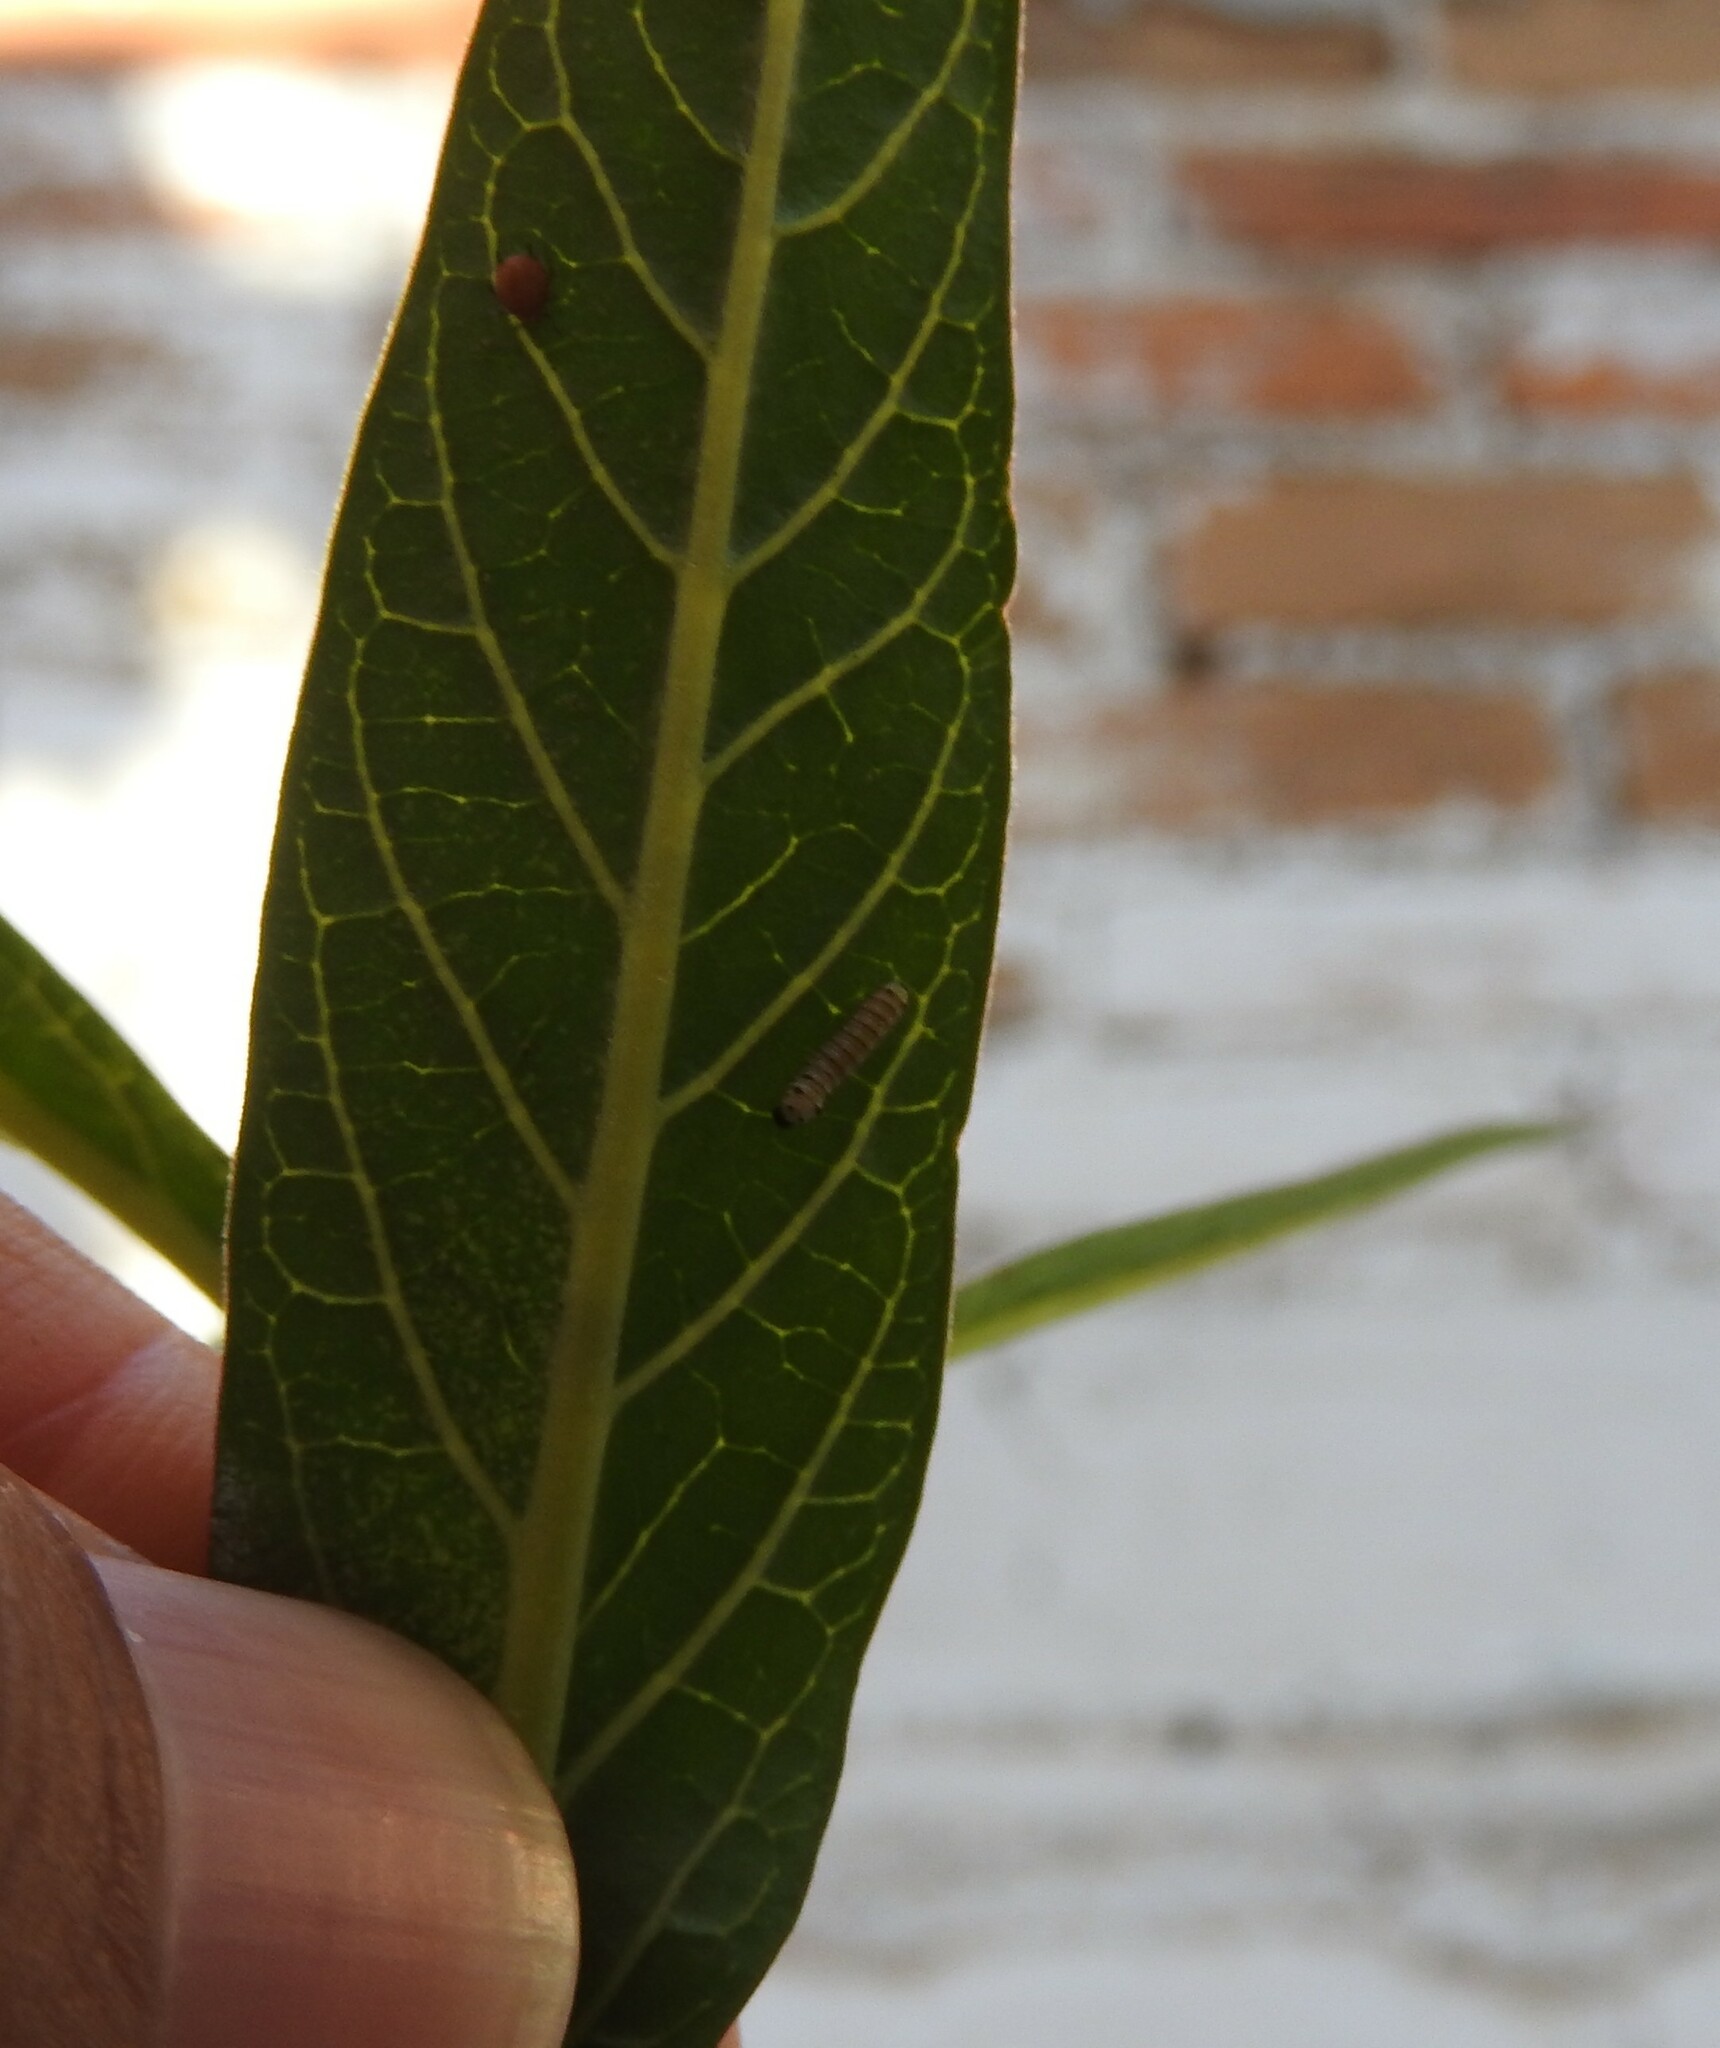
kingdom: Animalia
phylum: Arthropoda
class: Insecta
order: Lepidoptera
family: Nymphalidae
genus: Danaus
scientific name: Danaus plexippus
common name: Monarch
